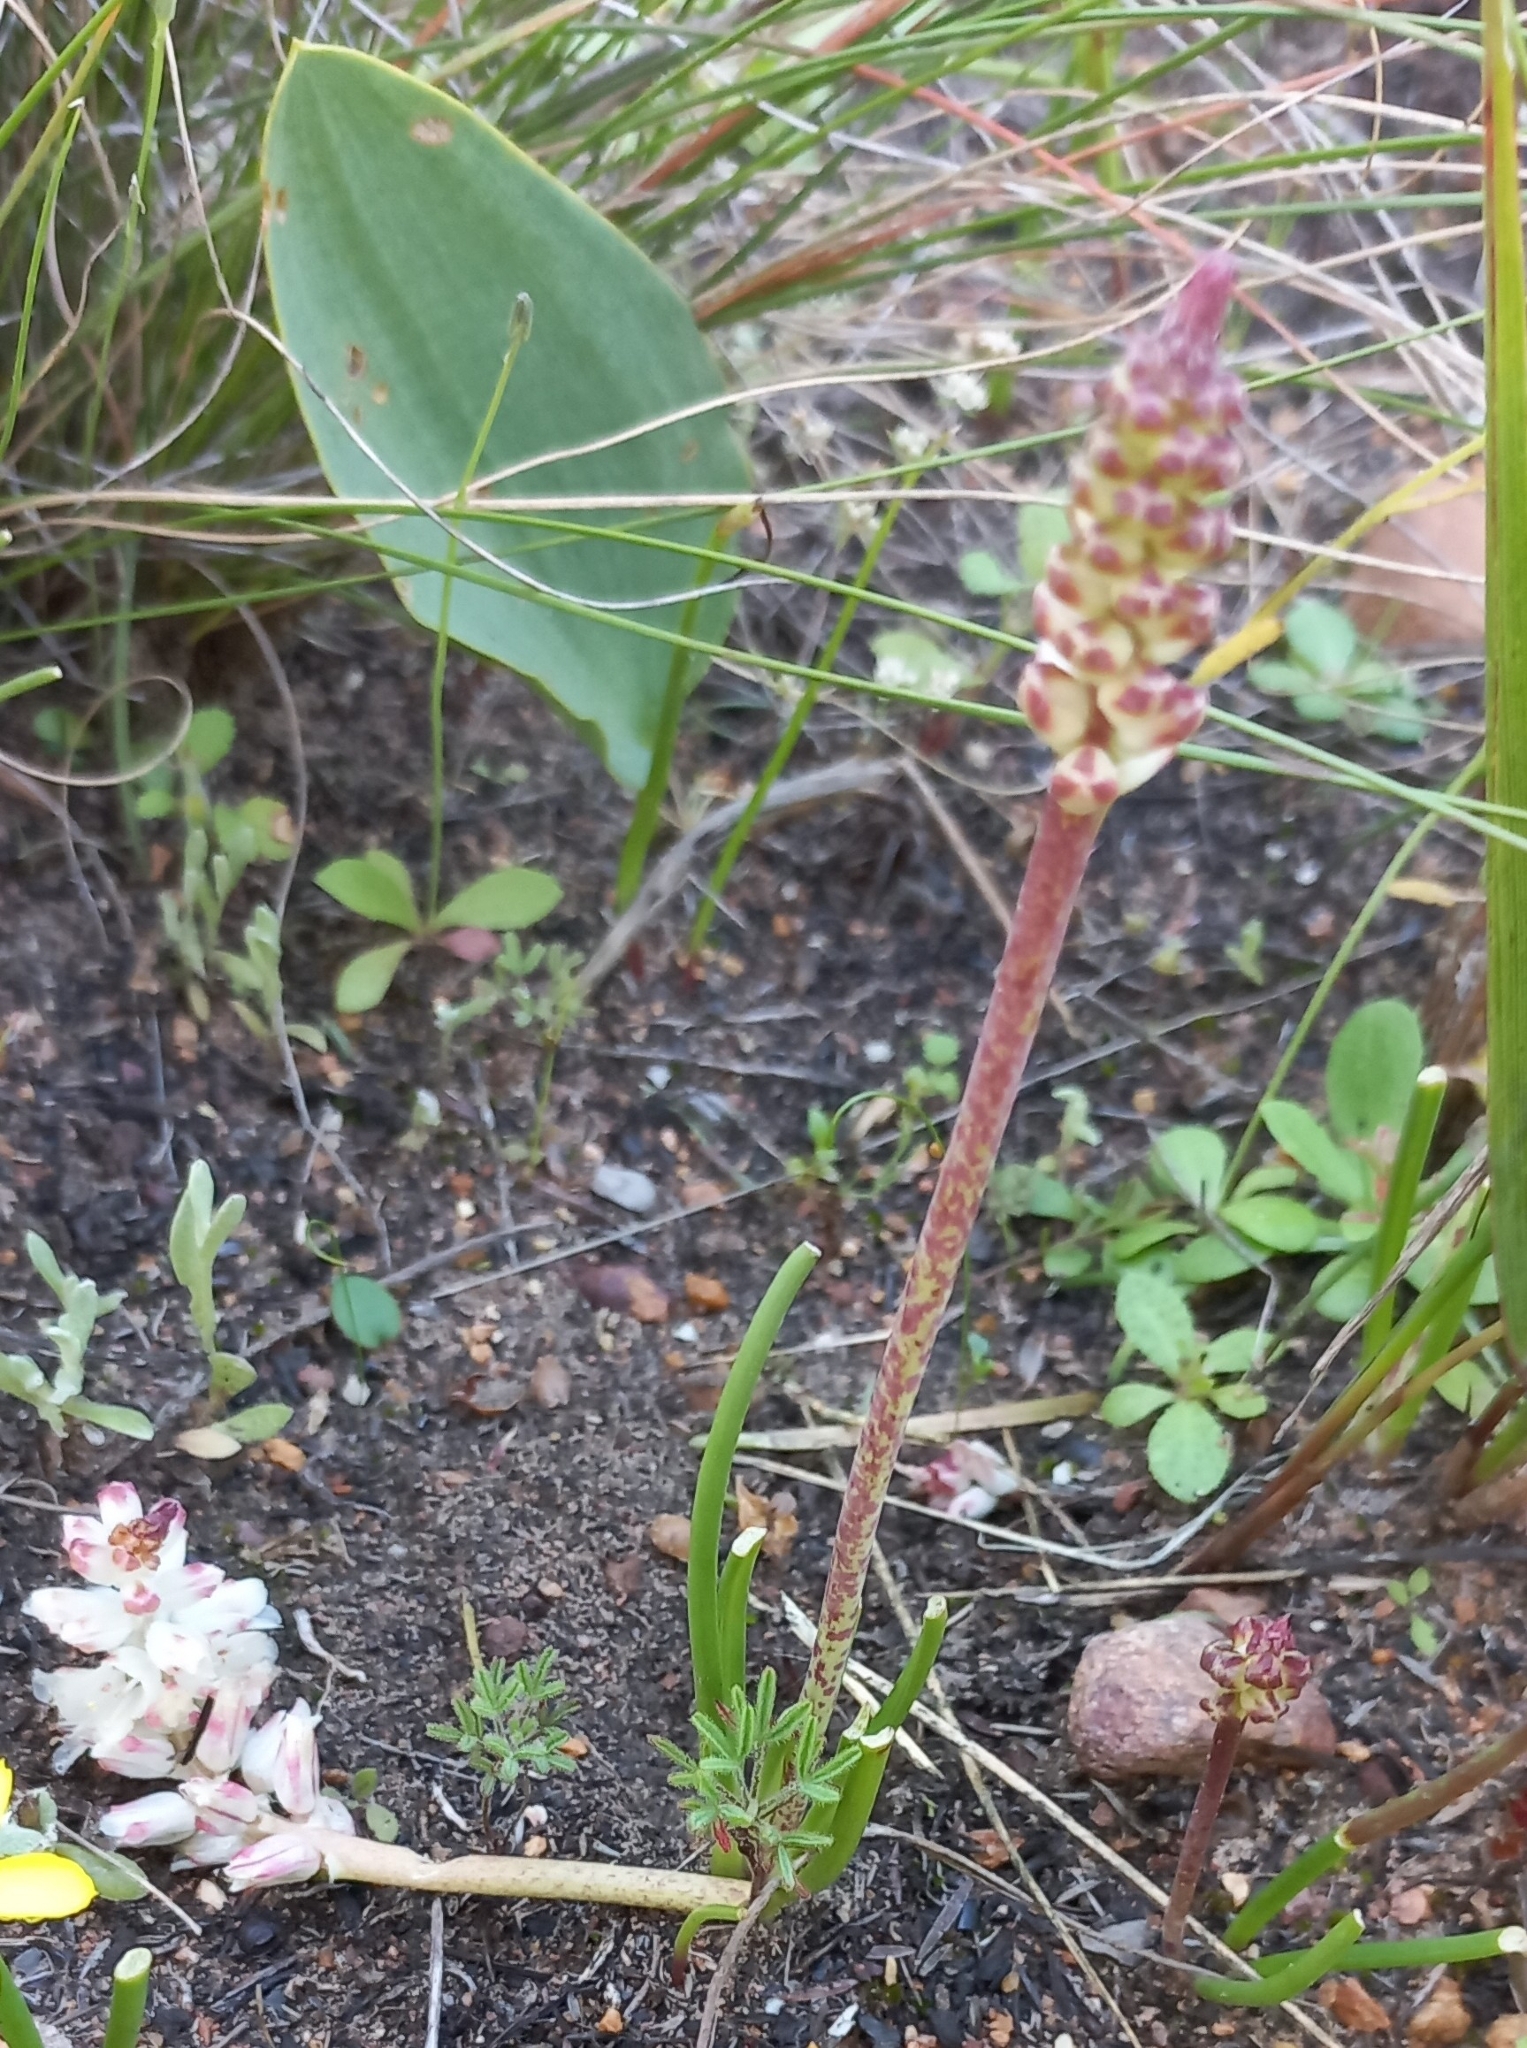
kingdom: Plantae
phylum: Tracheophyta
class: Liliopsida
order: Asparagales
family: Asparagaceae
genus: Lachenalia
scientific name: Lachenalia contaminata
